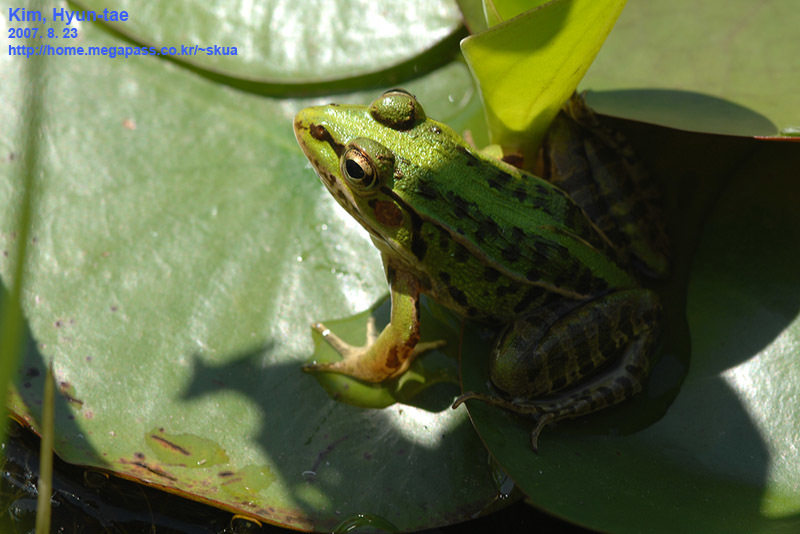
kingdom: Animalia
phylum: Chordata
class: Amphibia
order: Anura
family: Ranidae
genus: Pelophylax
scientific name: Pelophylax nigromaculatus
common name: Black-spotted pond frog
